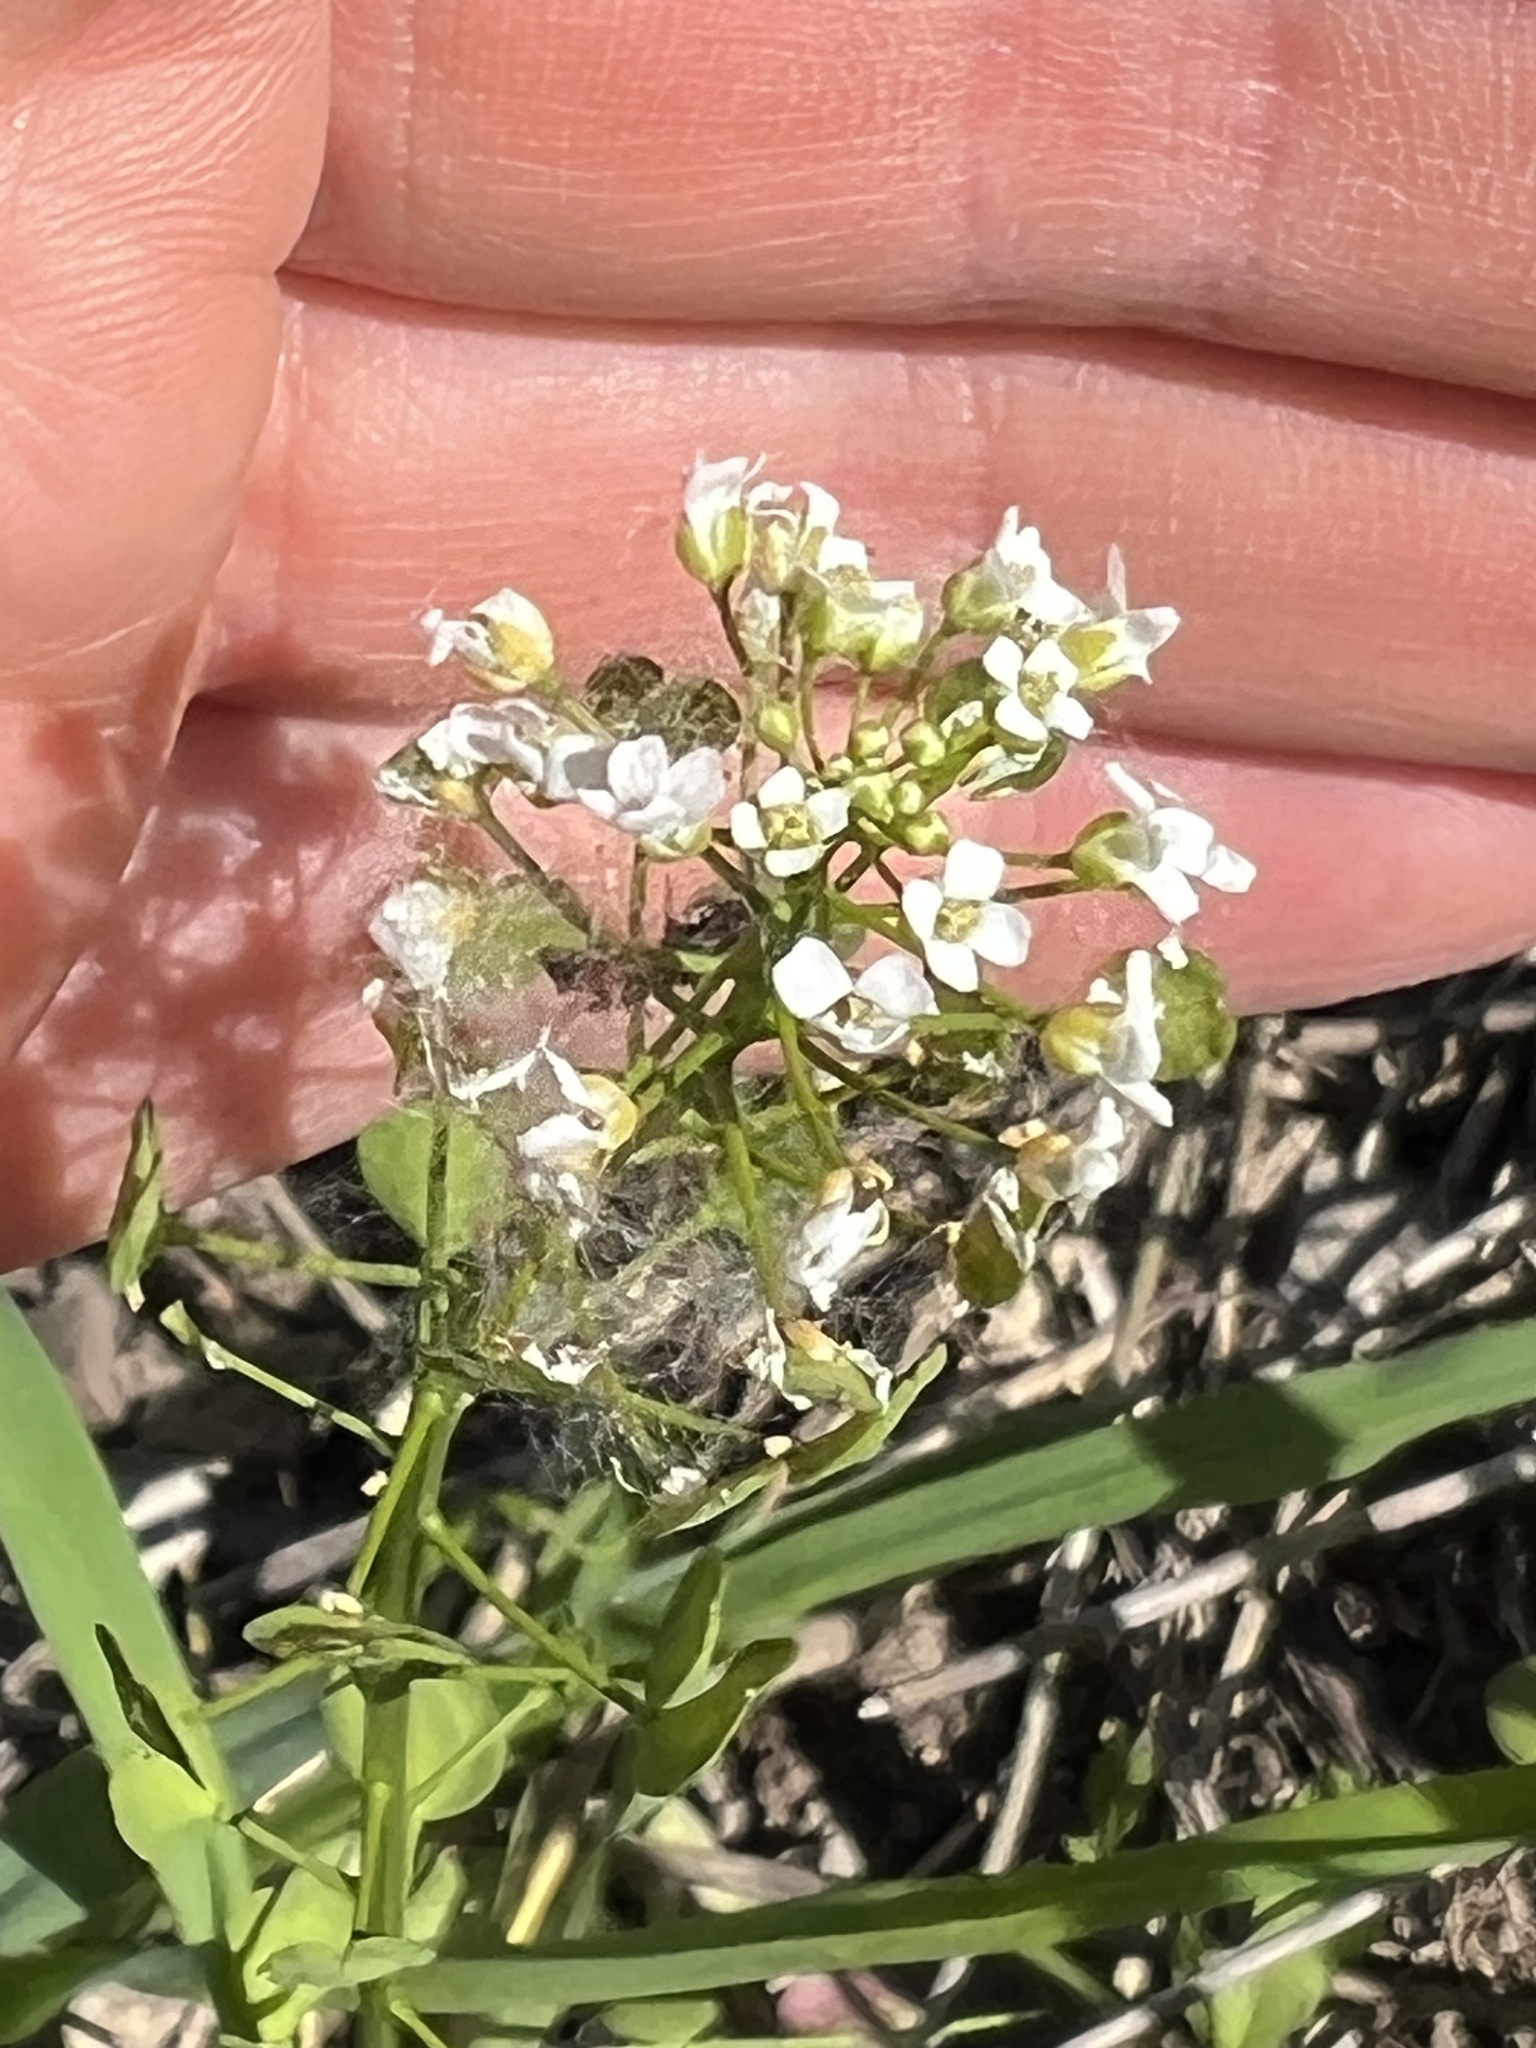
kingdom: Plantae
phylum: Tracheophyta
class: Magnoliopsida
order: Brassicales
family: Brassicaceae
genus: Thlaspi
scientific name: Thlaspi arvense
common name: Field pennycress
